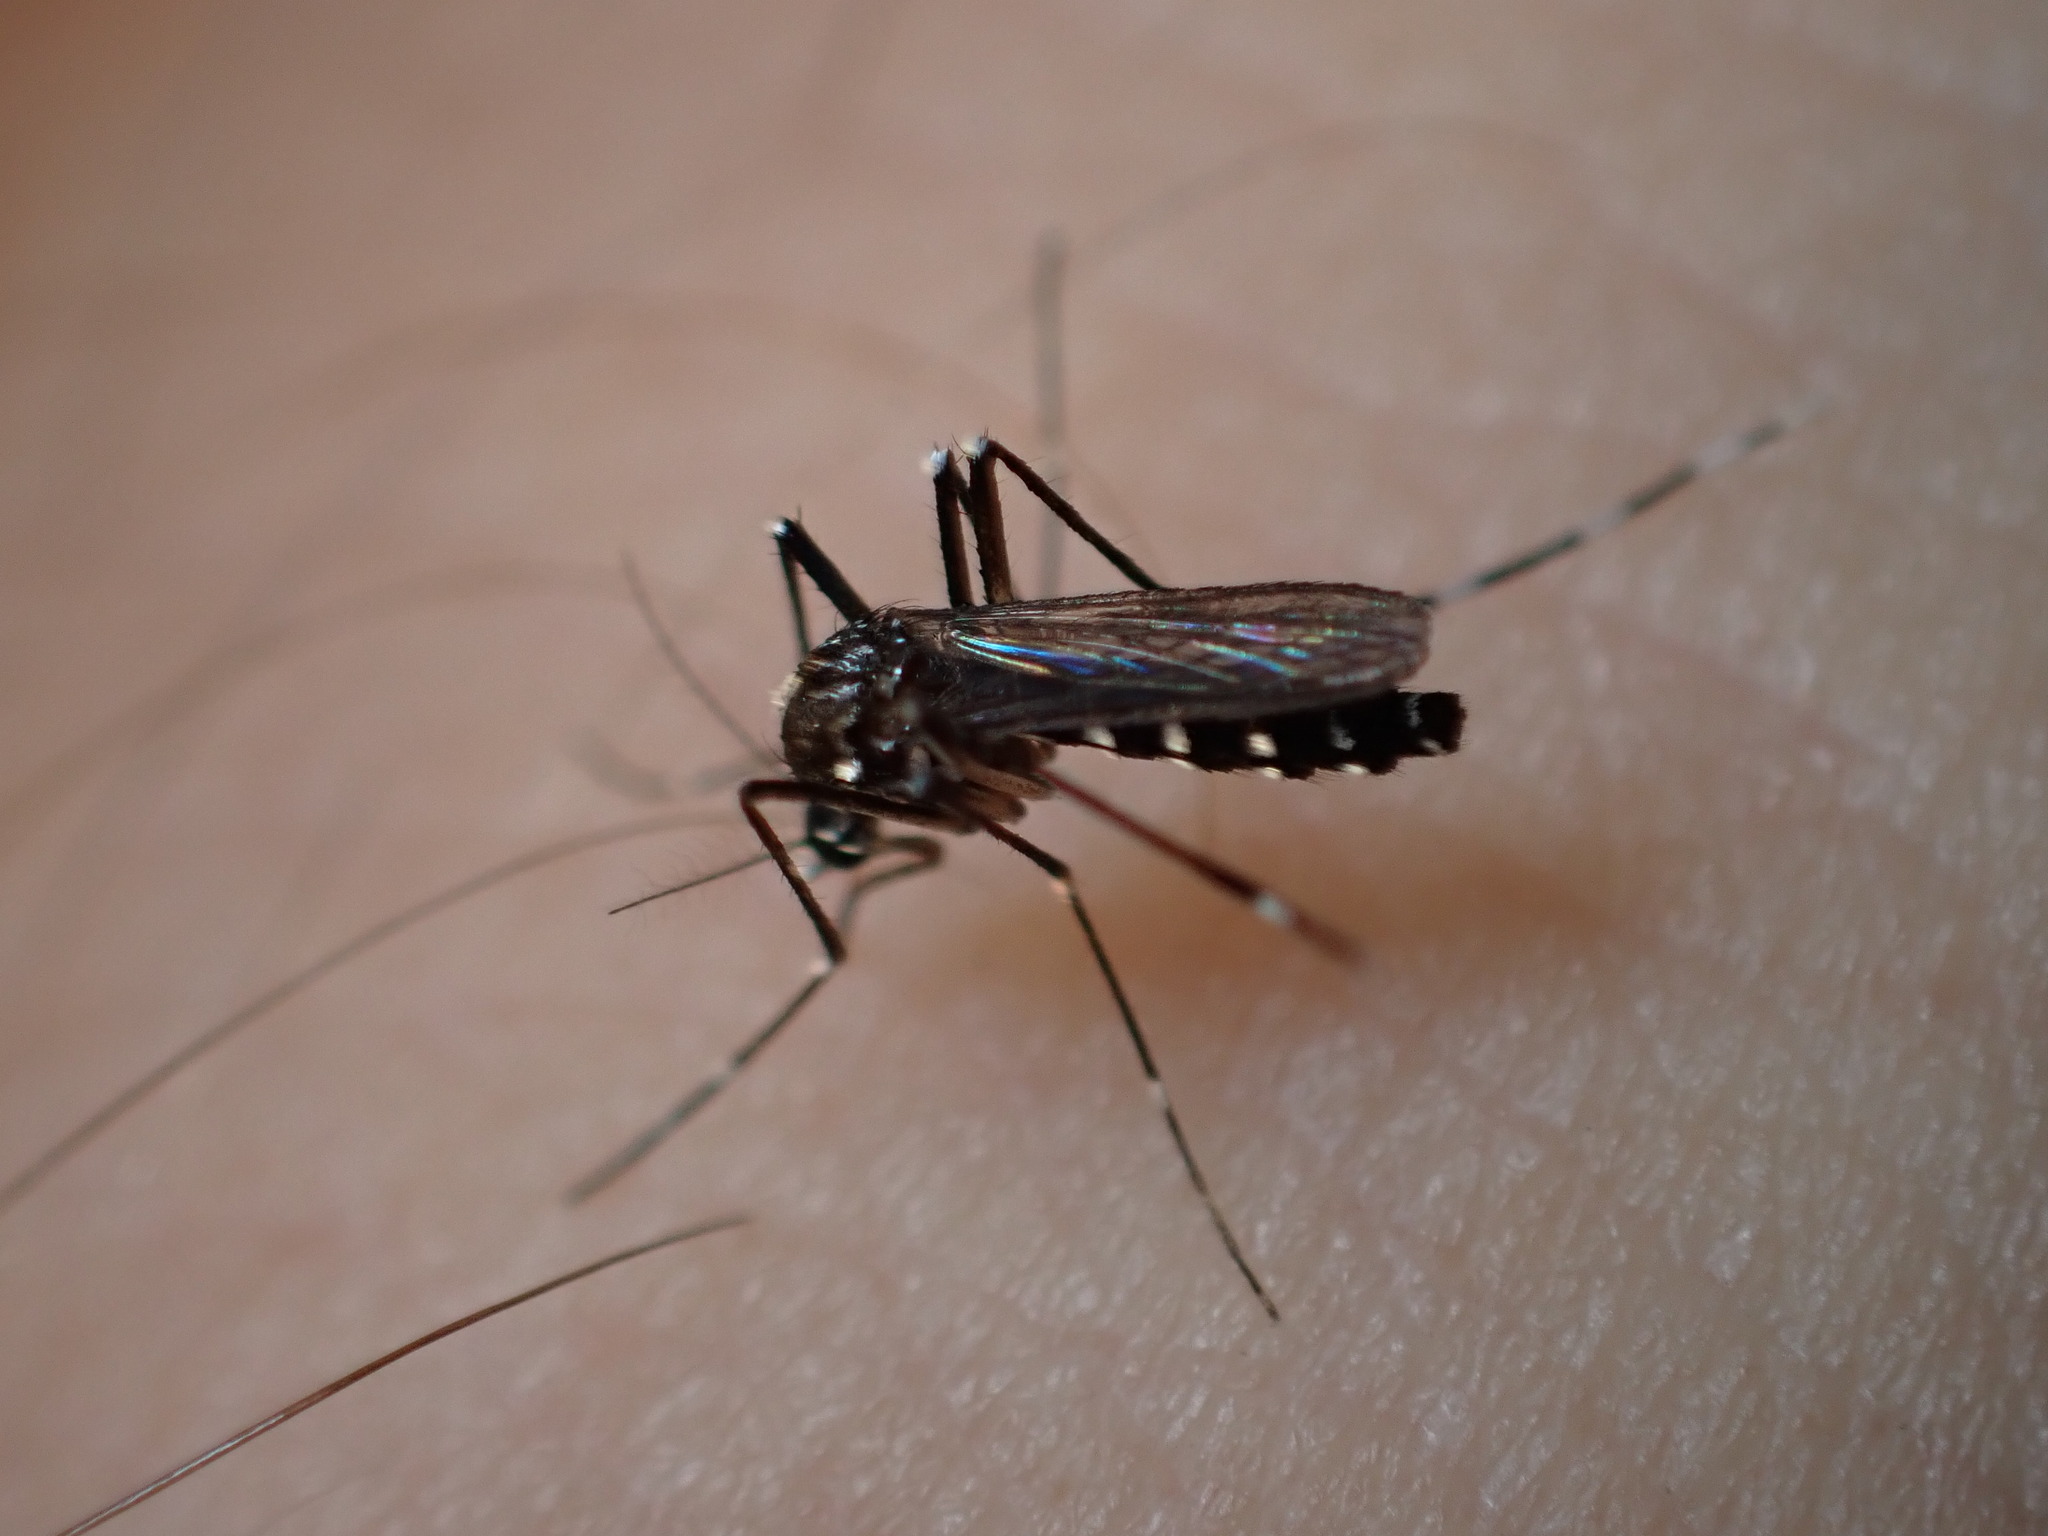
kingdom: Animalia
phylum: Arthropoda
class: Insecta
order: Diptera
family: Culicidae
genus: Aedes
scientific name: Aedes albopictus
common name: Tiger mosquito
